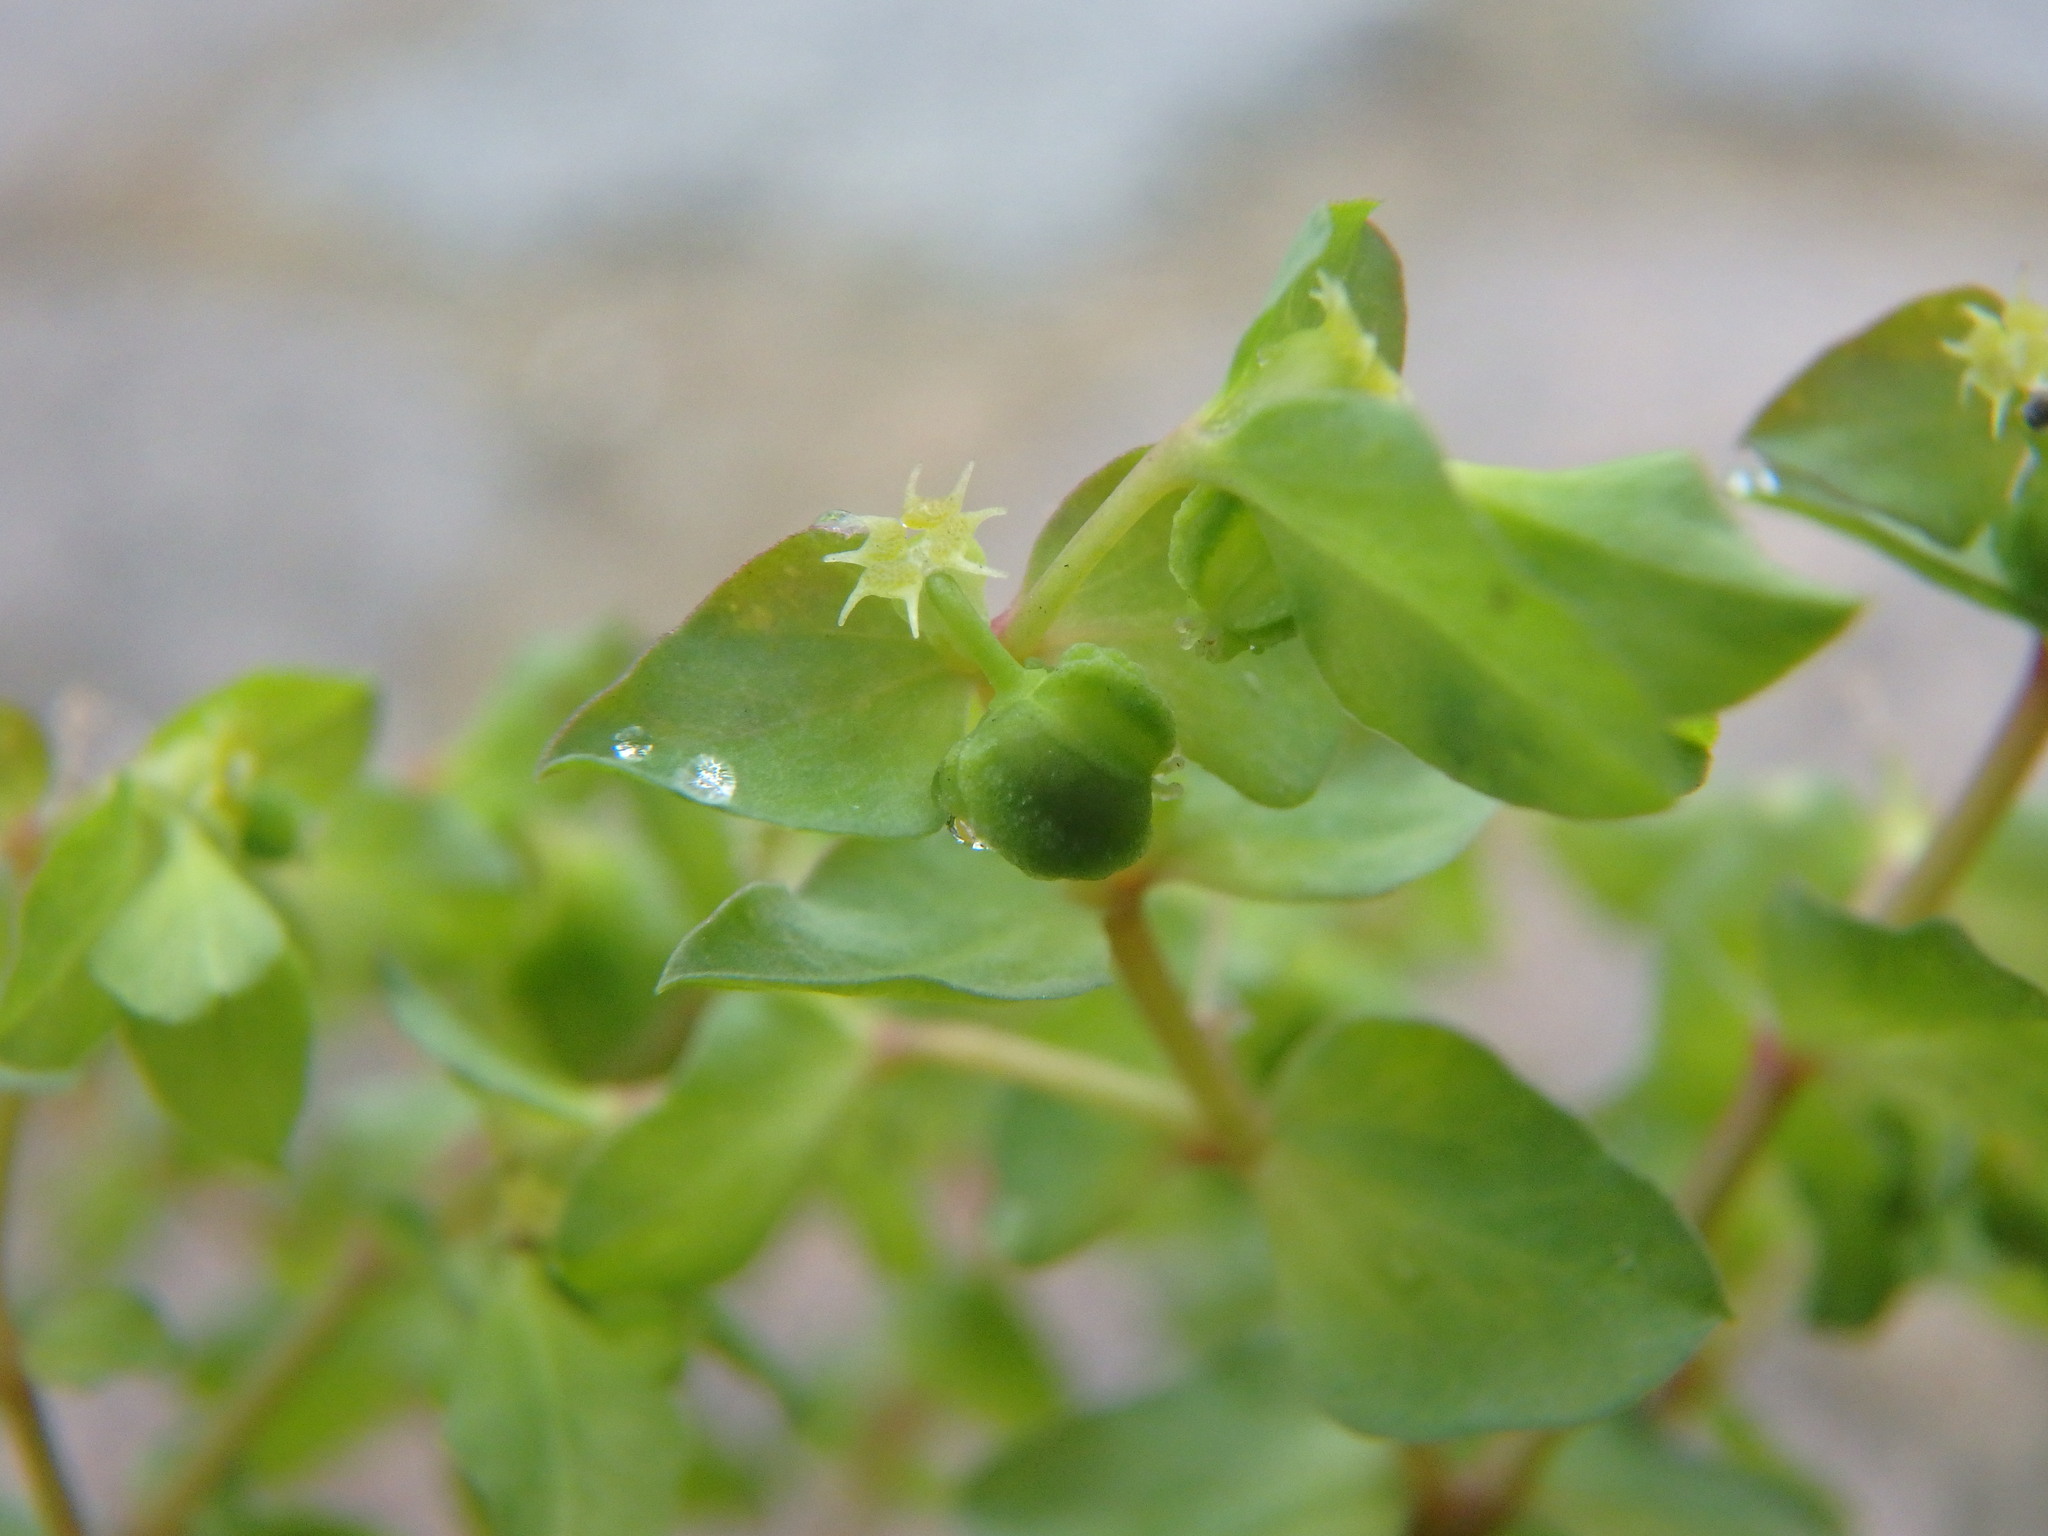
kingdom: Plantae
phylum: Tracheophyta
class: Magnoliopsida
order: Malpighiales
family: Euphorbiaceae
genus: Euphorbia
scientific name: Euphorbia peplus
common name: Petty spurge
